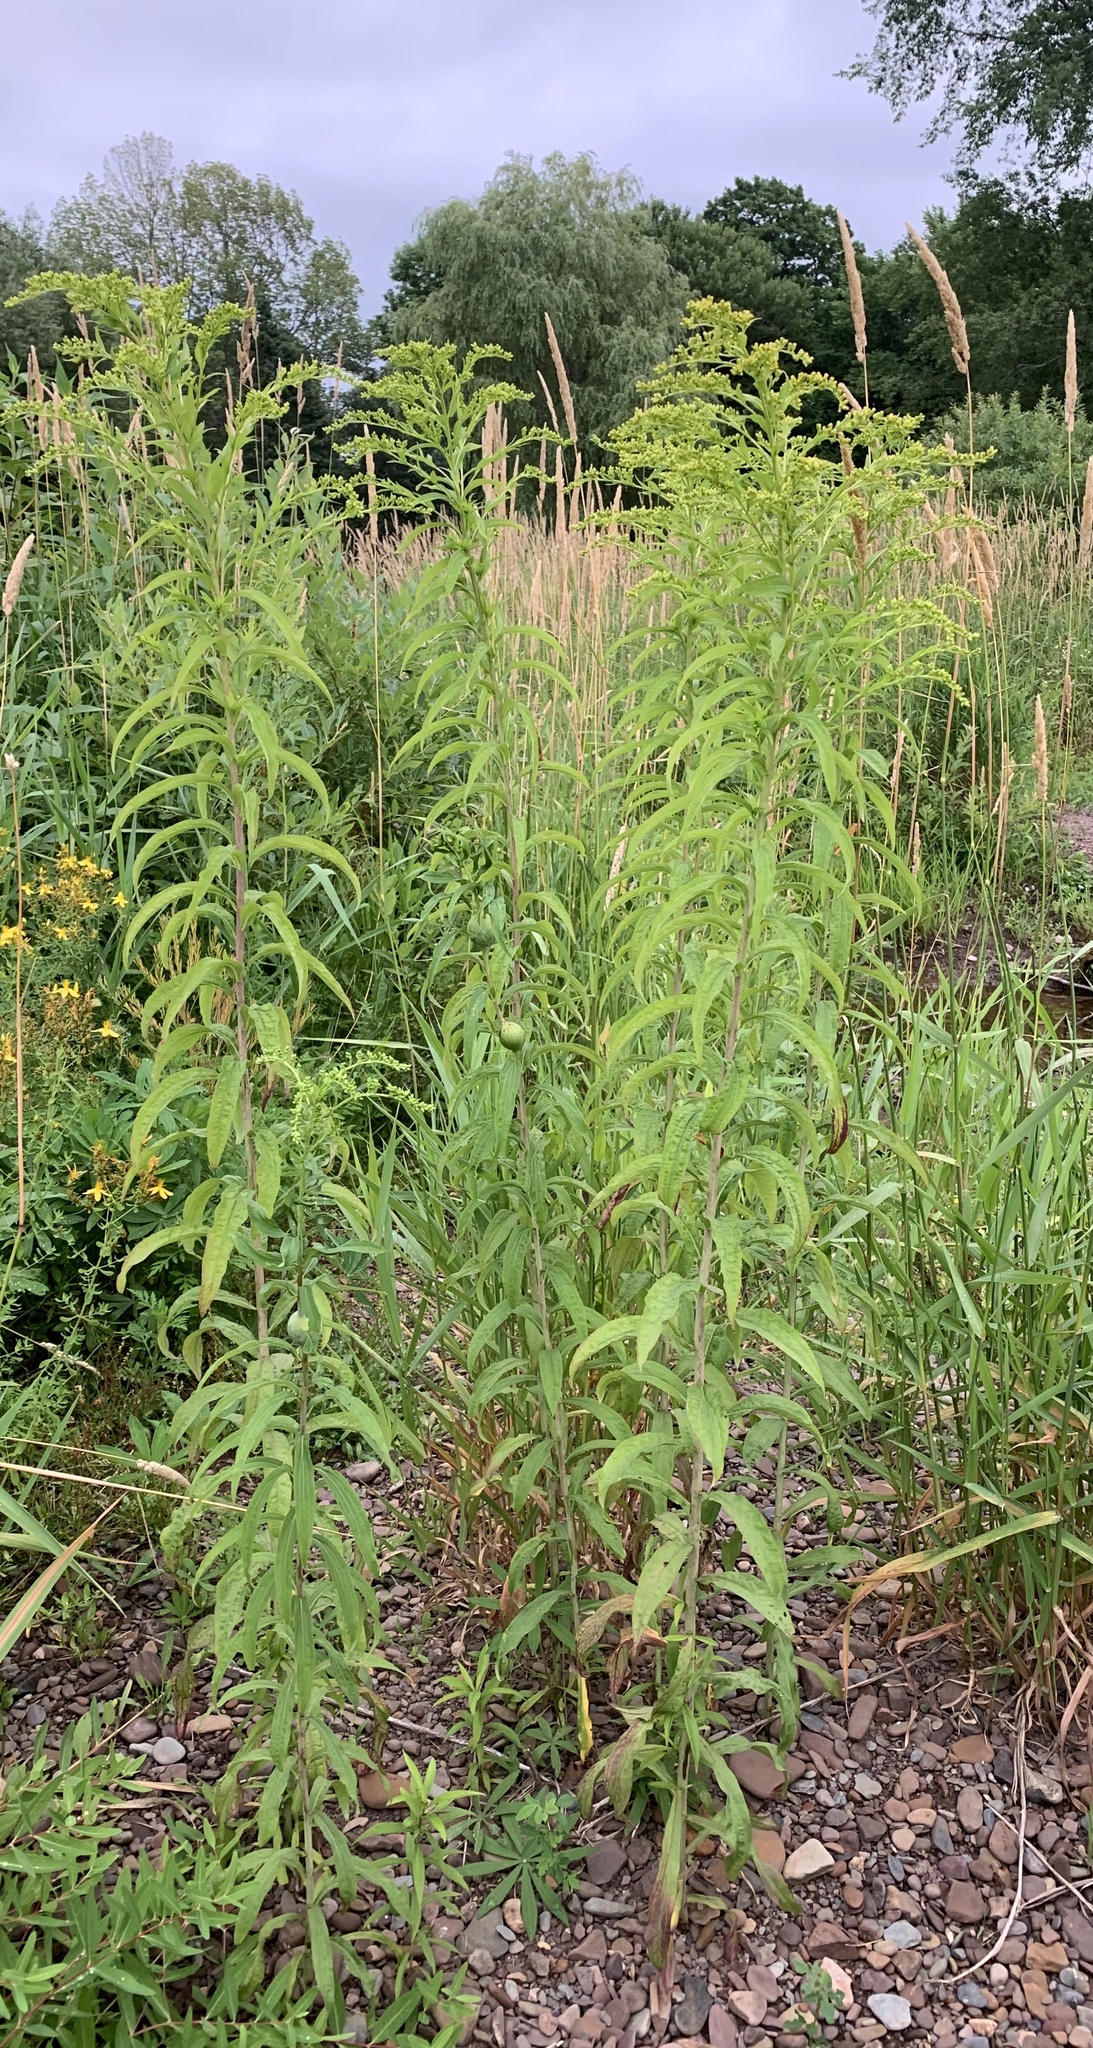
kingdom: Plantae
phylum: Tracheophyta
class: Magnoliopsida
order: Asterales
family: Asteraceae
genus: Solidago
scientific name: Solidago gigantea
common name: Giant goldenrod
